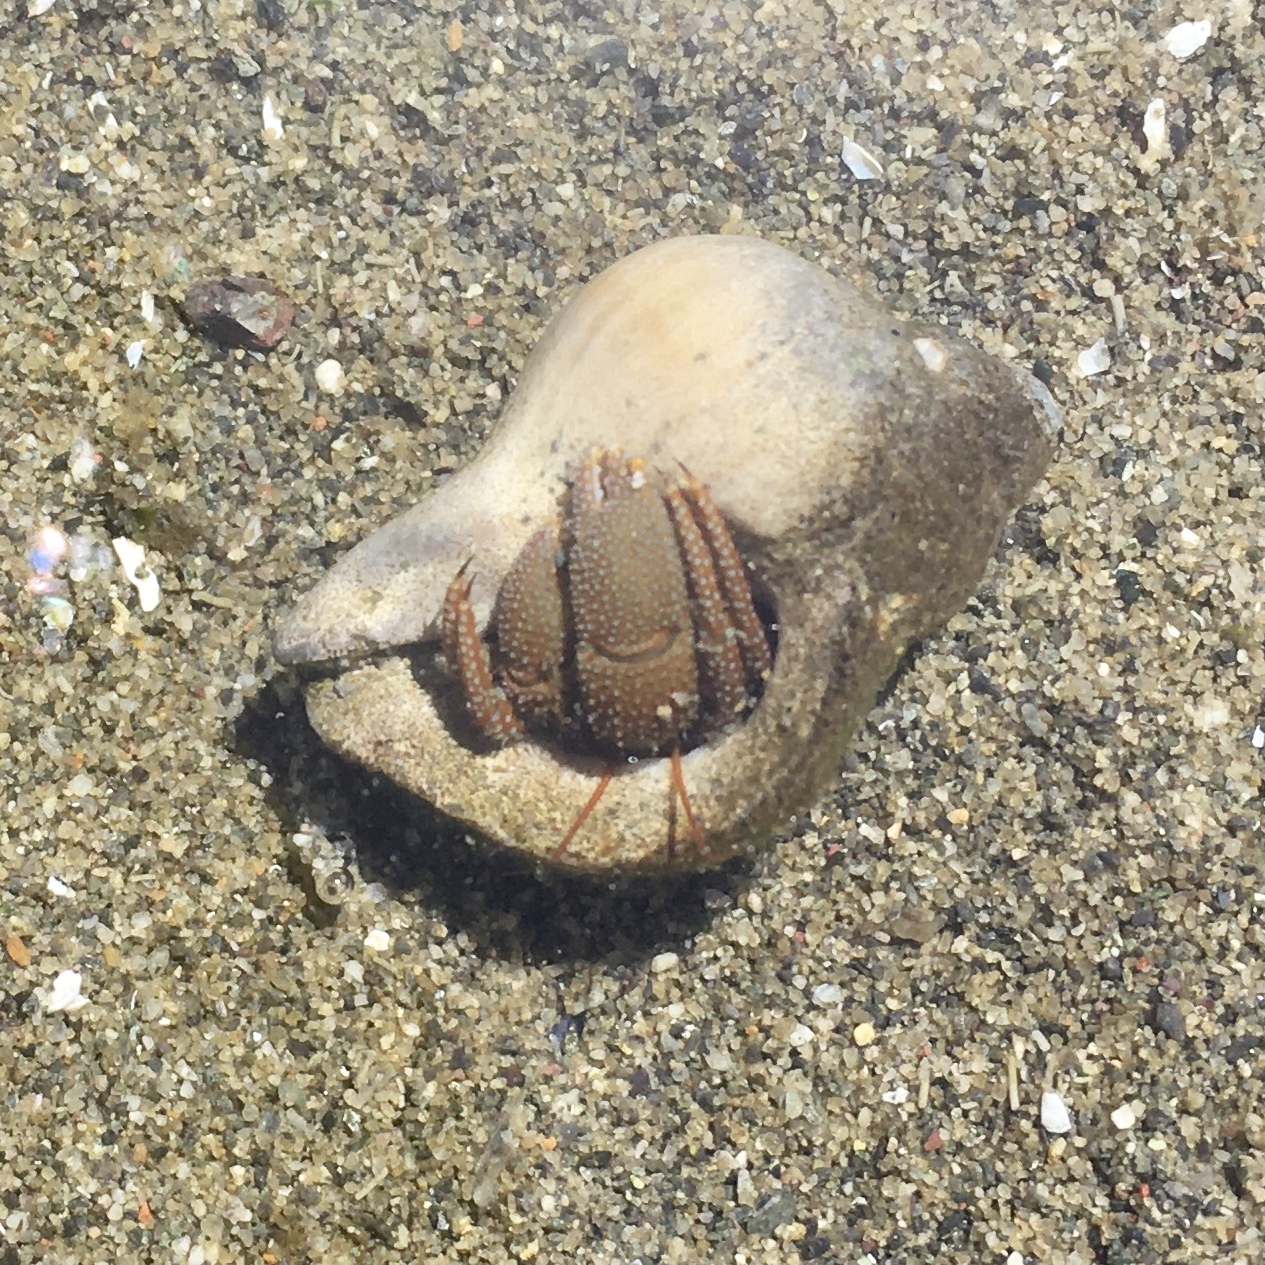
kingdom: Animalia
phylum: Arthropoda
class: Malacostraca
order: Decapoda
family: Paguridae
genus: Pagurus
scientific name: Pagurus granosimanus
